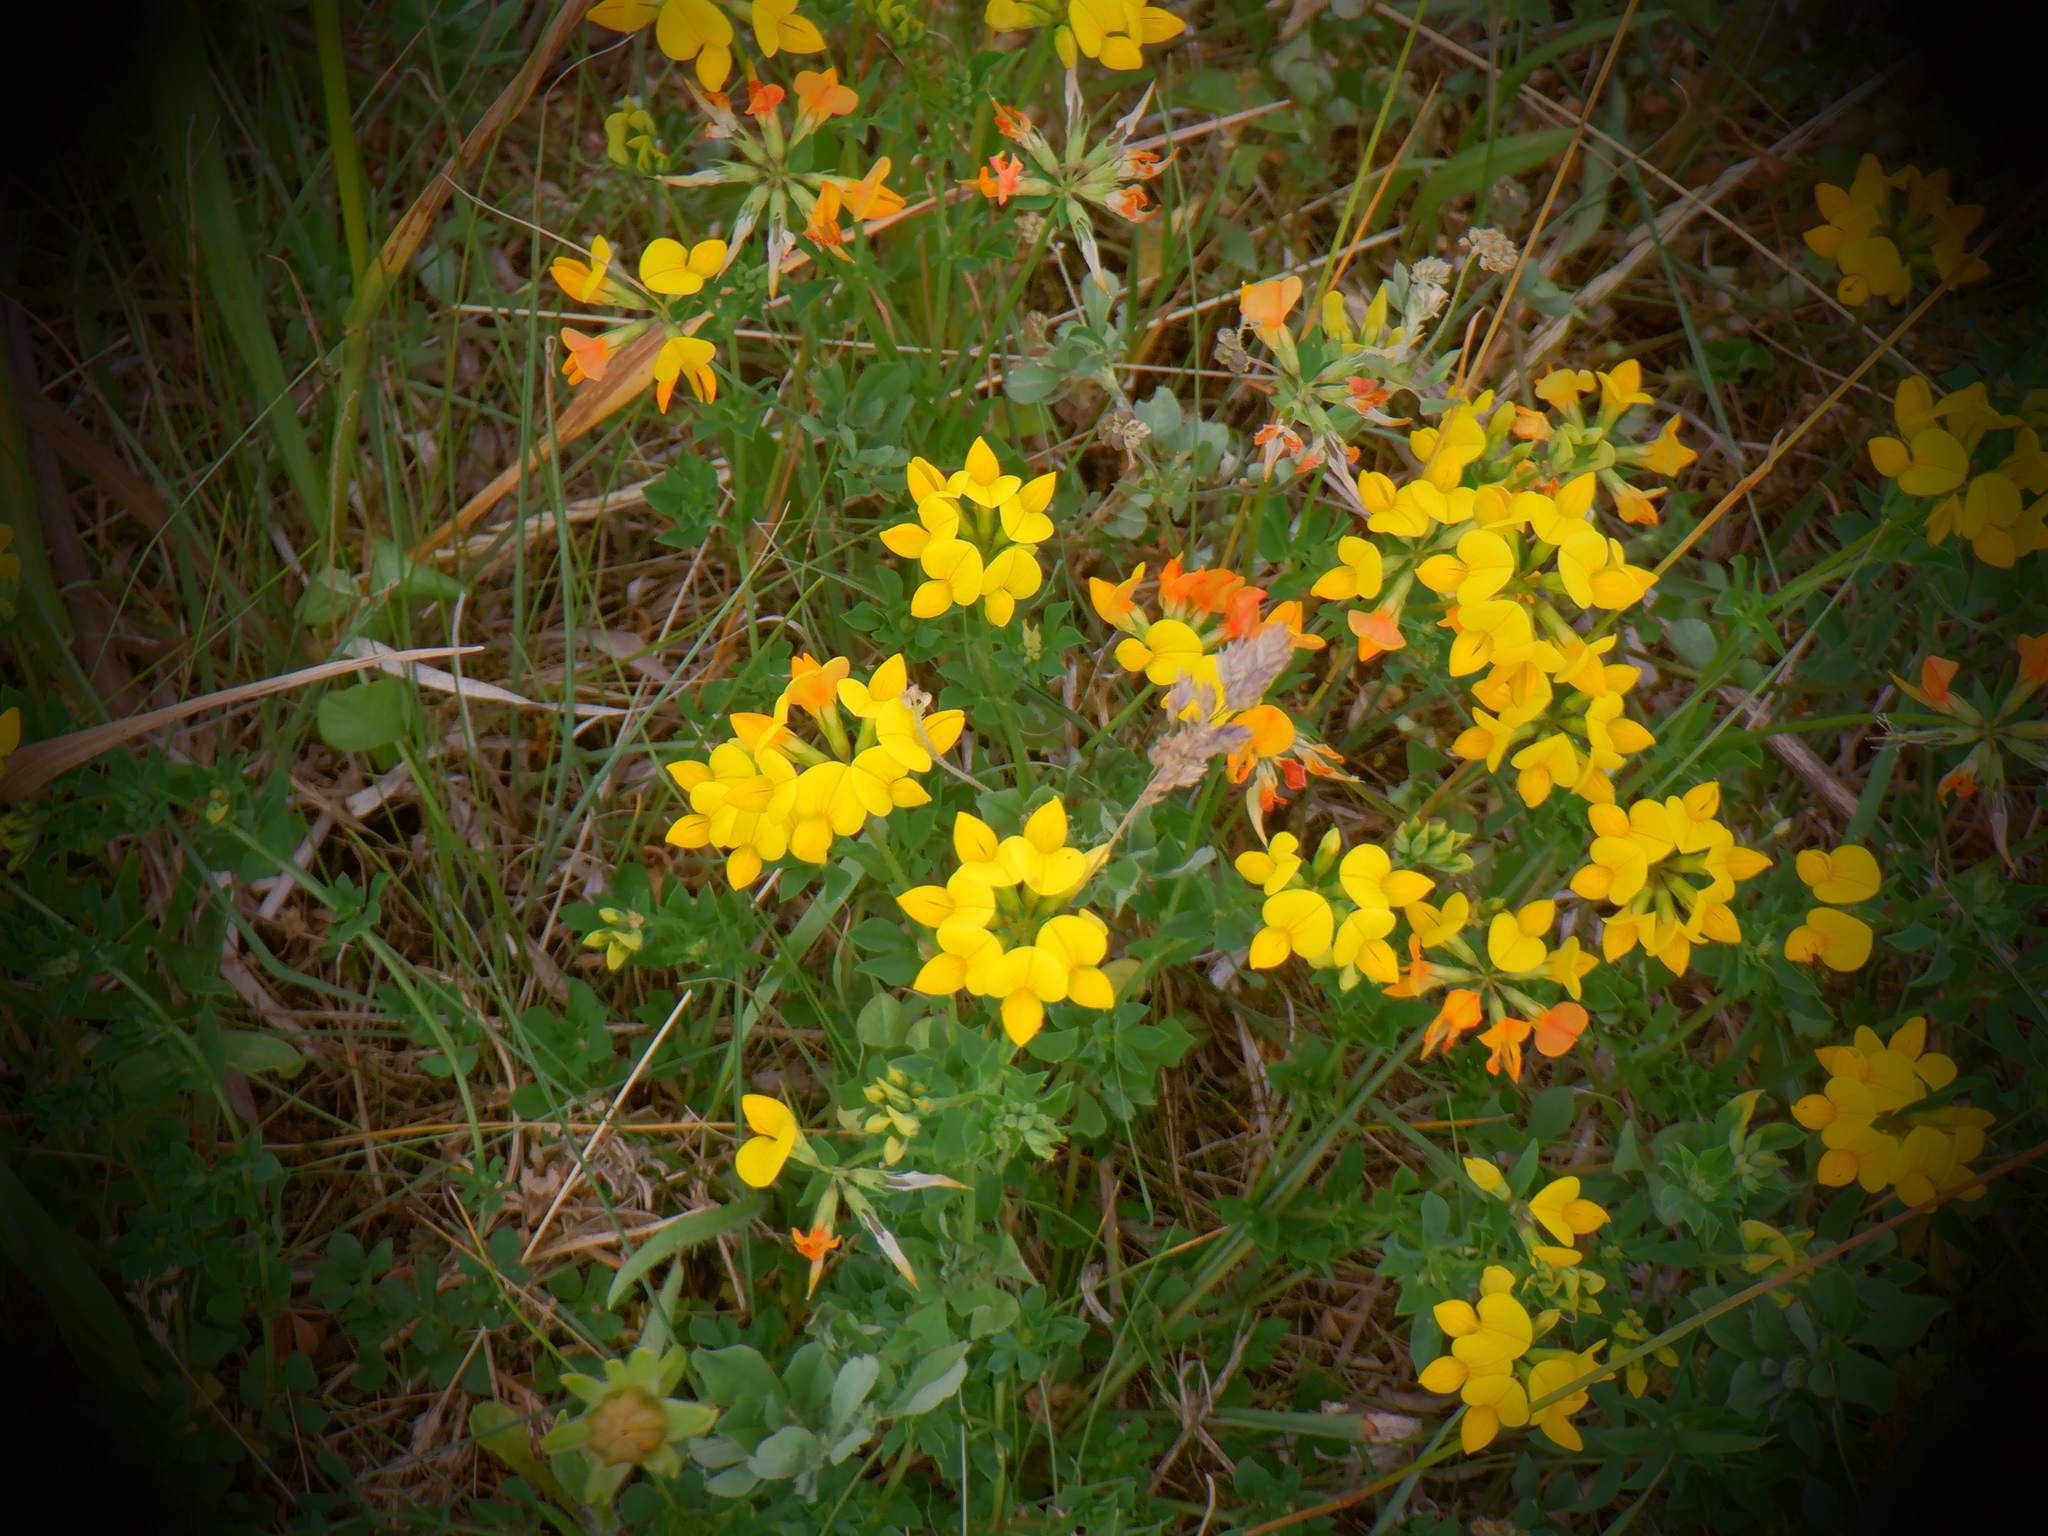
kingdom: Plantae
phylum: Tracheophyta
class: Magnoliopsida
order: Fabales
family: Fabaceae
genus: Lotus
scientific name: Lotus corniculatus
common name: Common bird's-foot-trefoil
